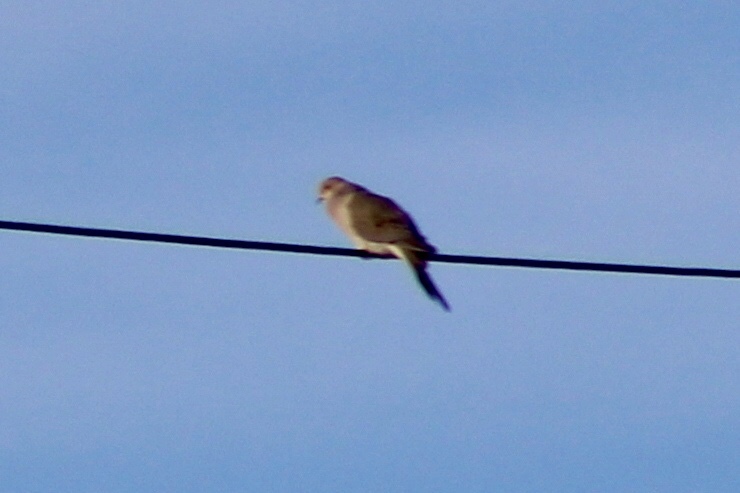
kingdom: Animalia
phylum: Chordata
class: Aves
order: Columbiformes
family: Columbidae
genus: Zenaida
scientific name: Zenaida macroura
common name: Mourning dove
